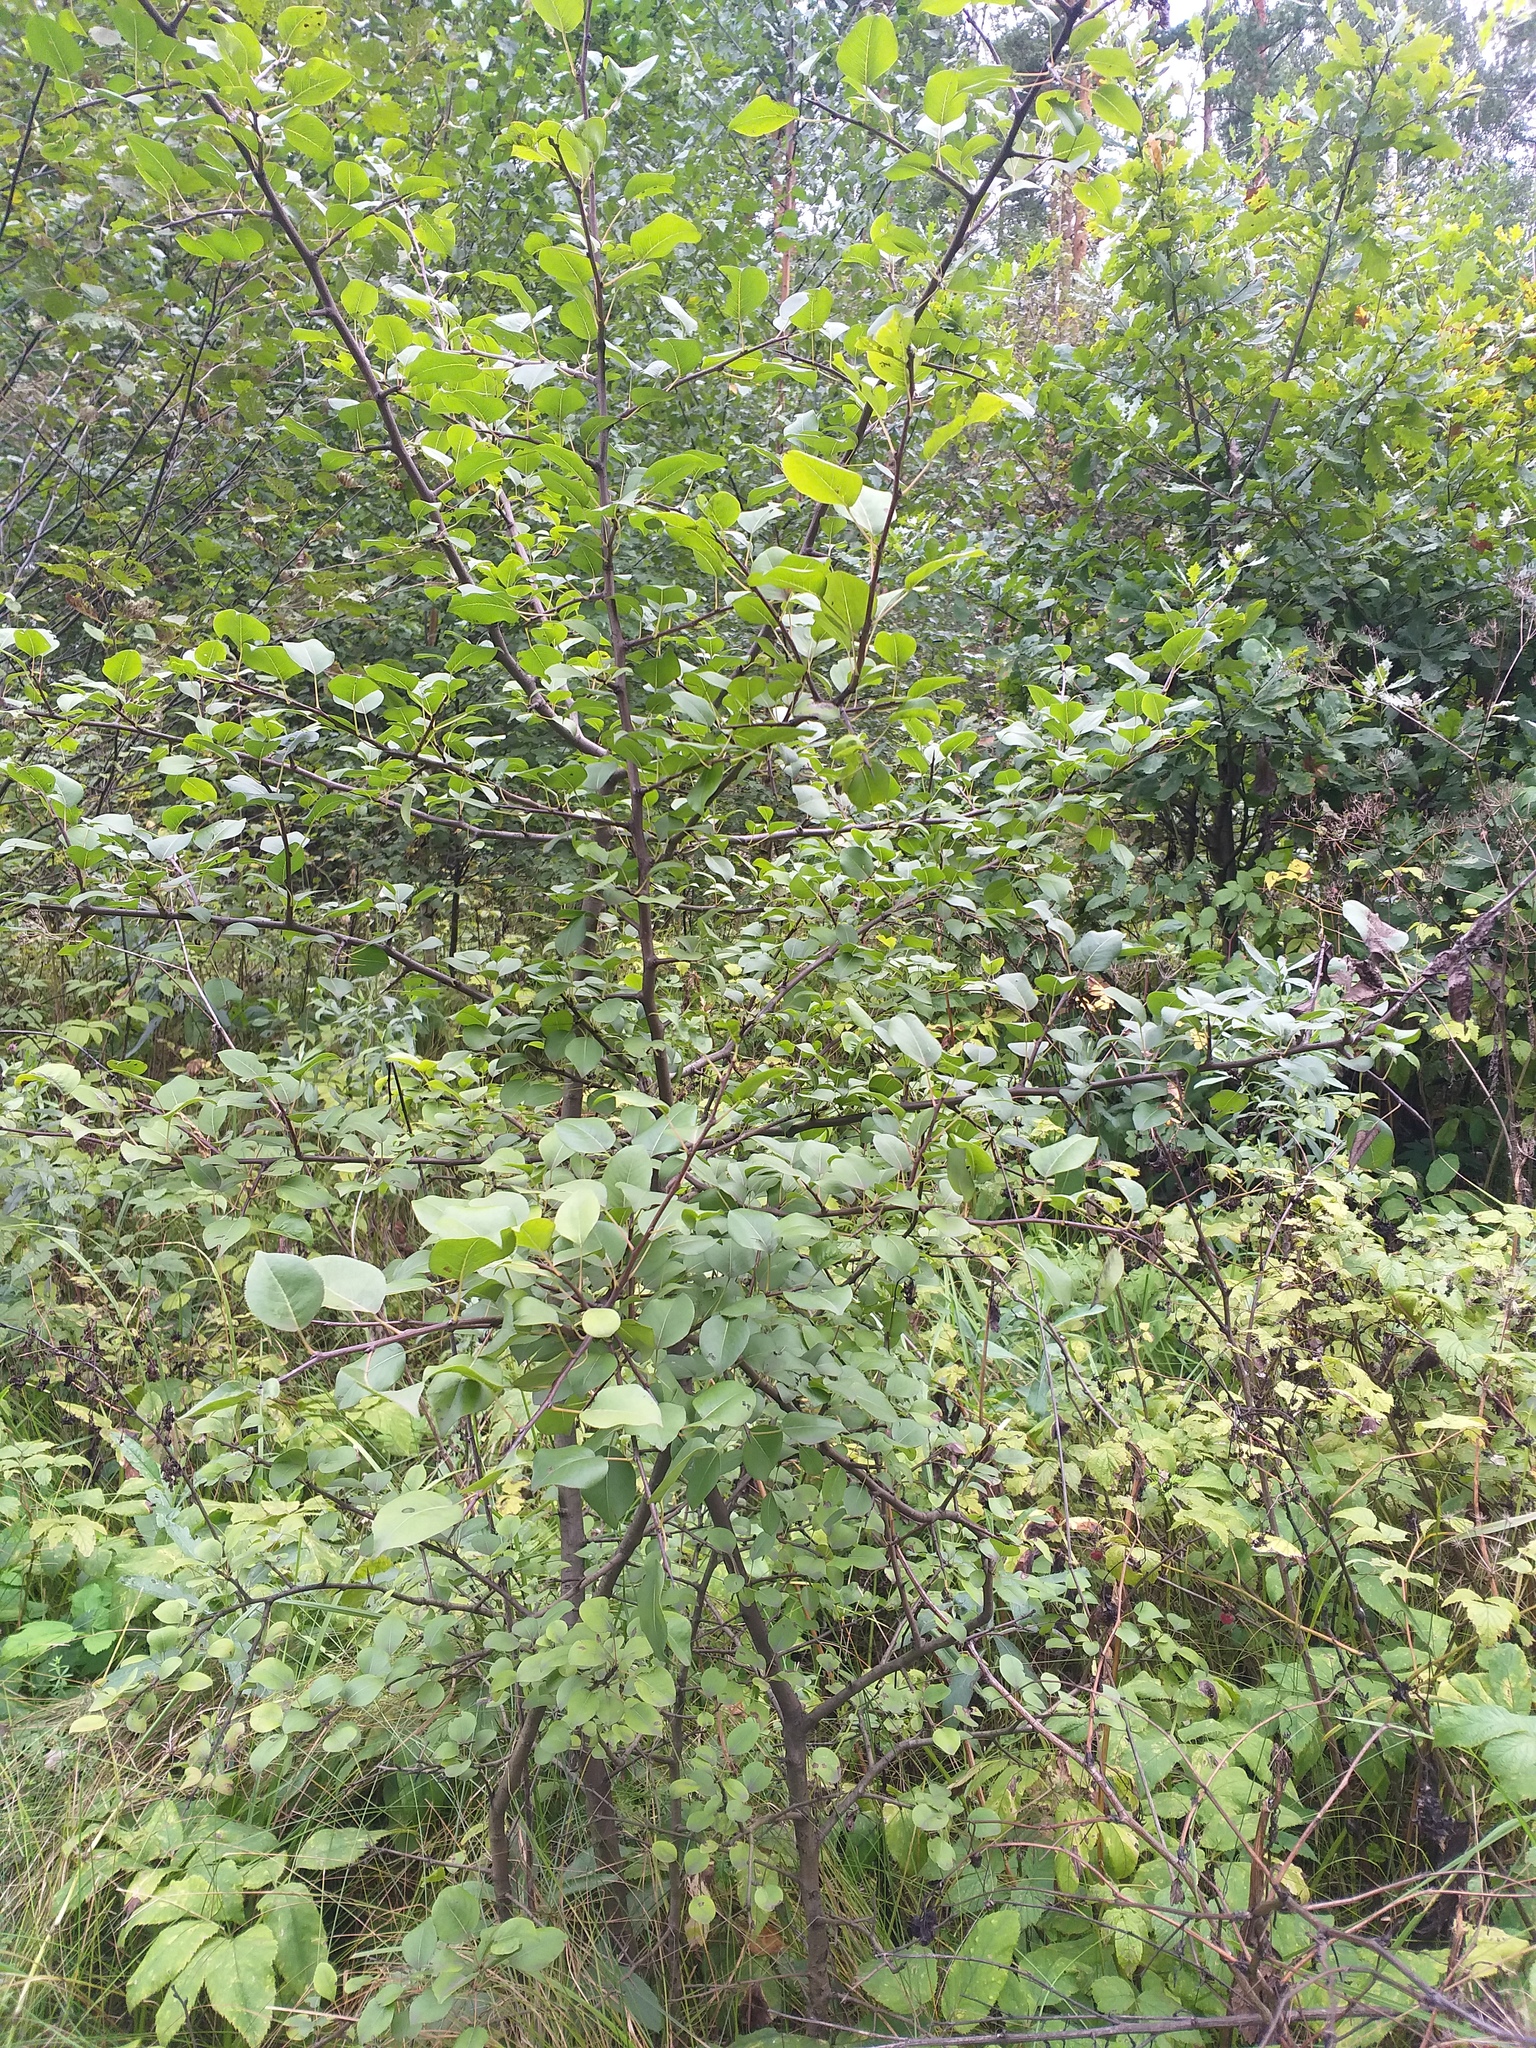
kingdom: Plantae
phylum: Tracheophyta
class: Magnoliopsida
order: Rosales
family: Rosaceae
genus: Pyrus
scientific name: Pyrus communis
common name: Pear
